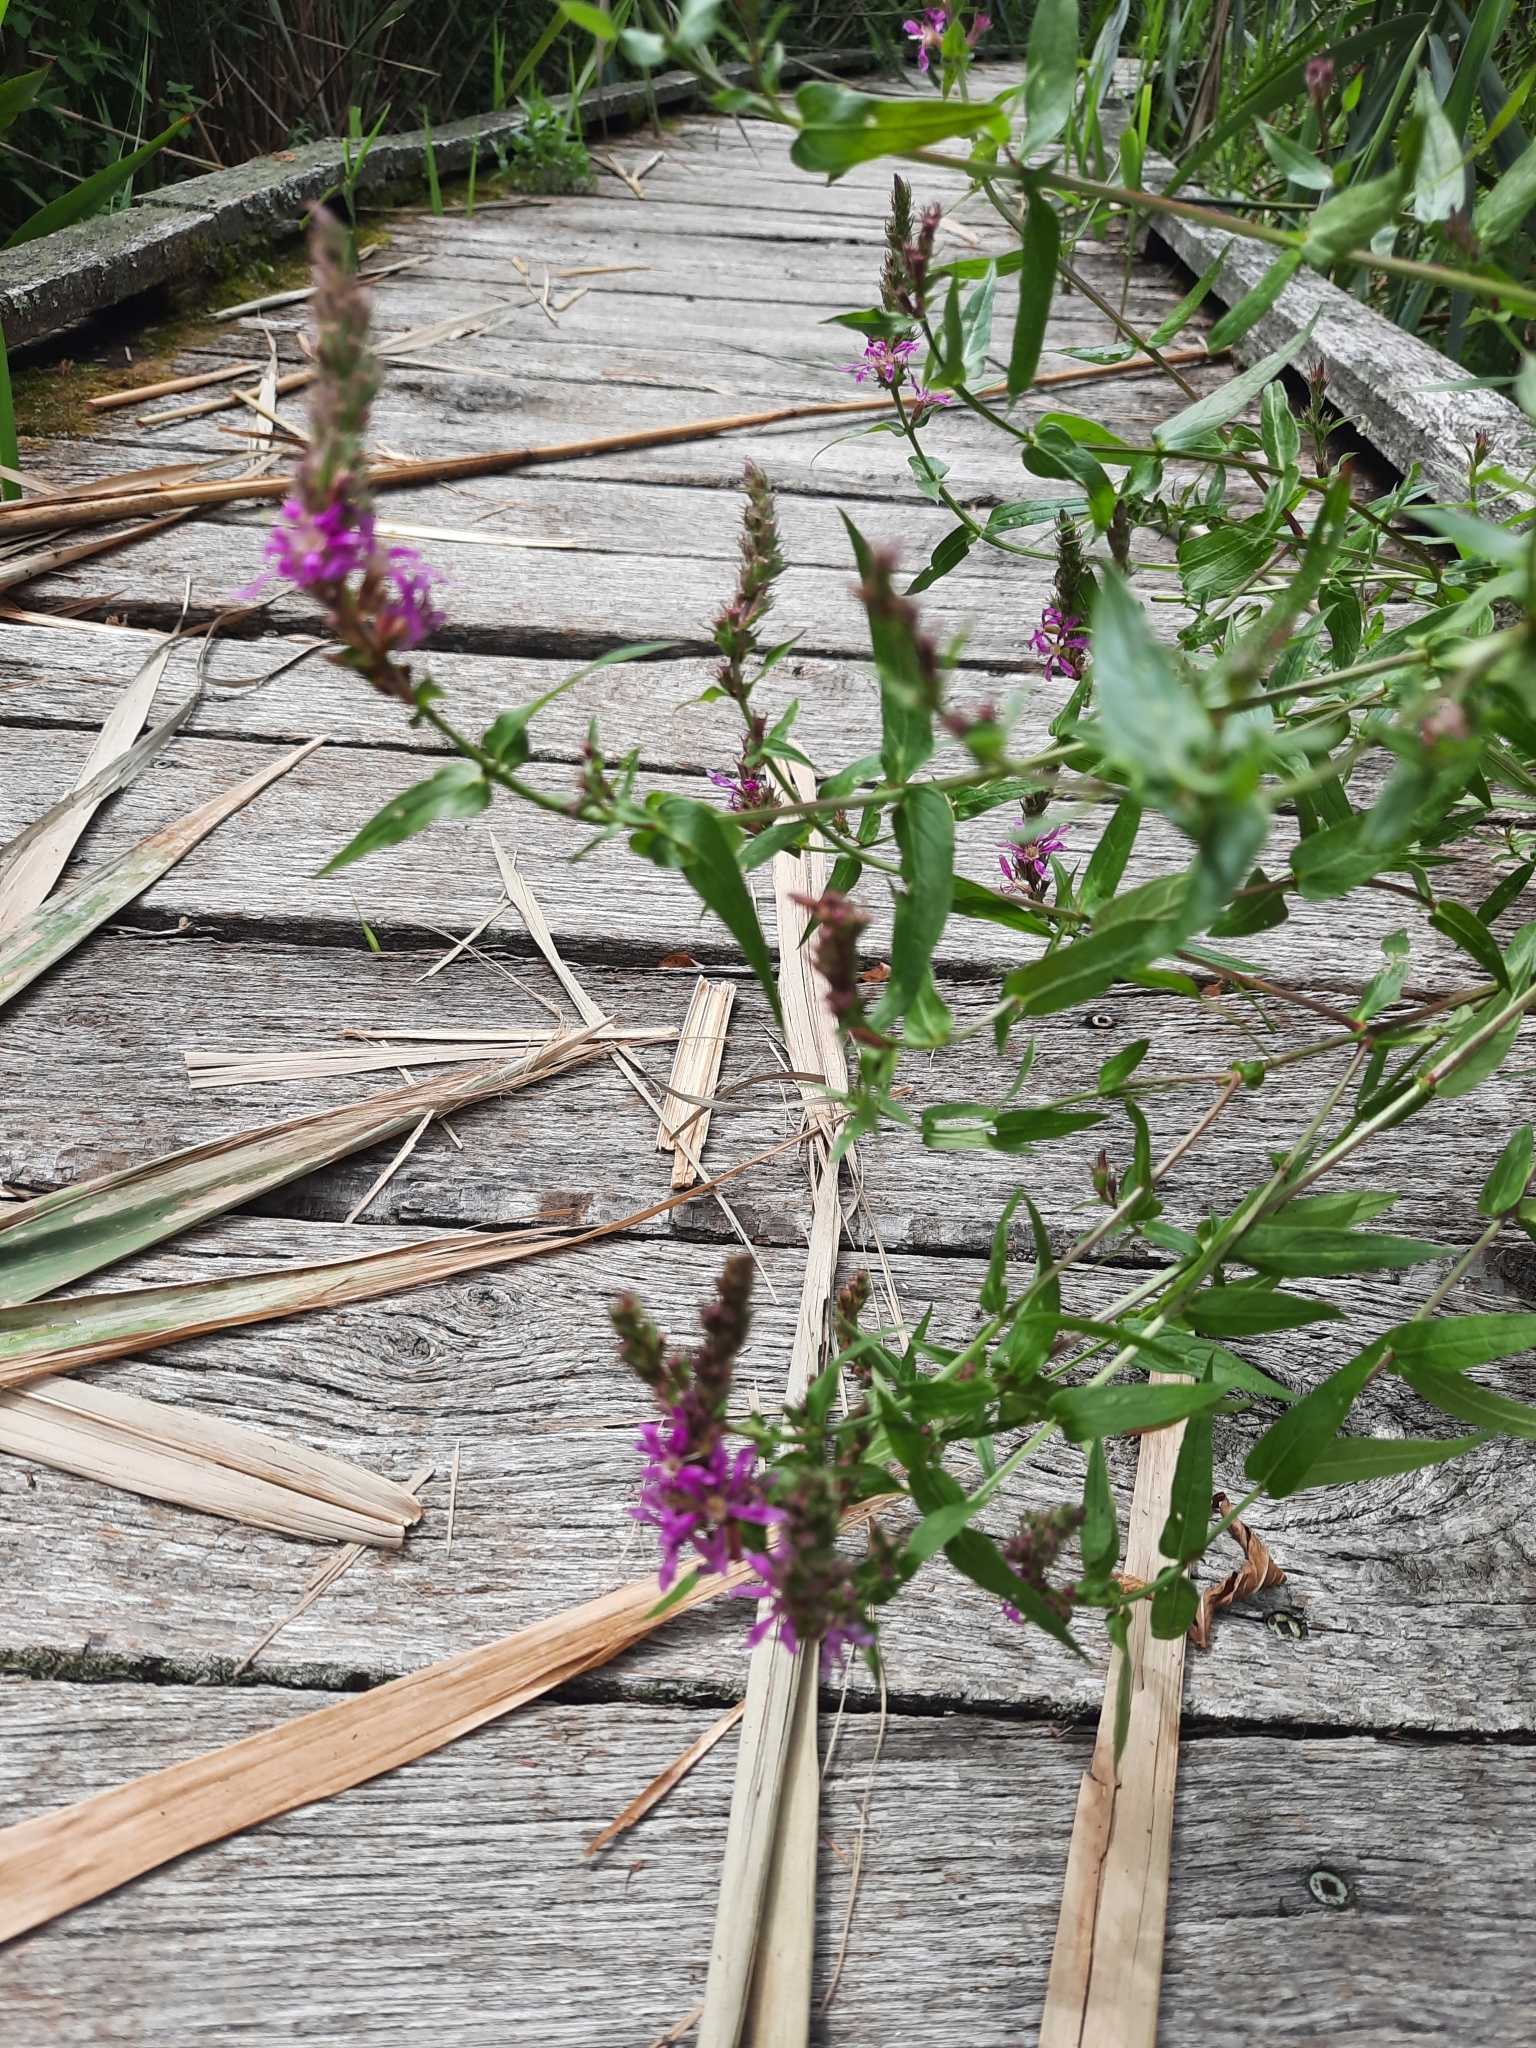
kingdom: Plantae
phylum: Tracheophyta
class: Magnoliopsida
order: Myrtales
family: Lythraceae
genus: Lythrum
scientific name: Lythrum salicaria
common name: Purple loosestrife
